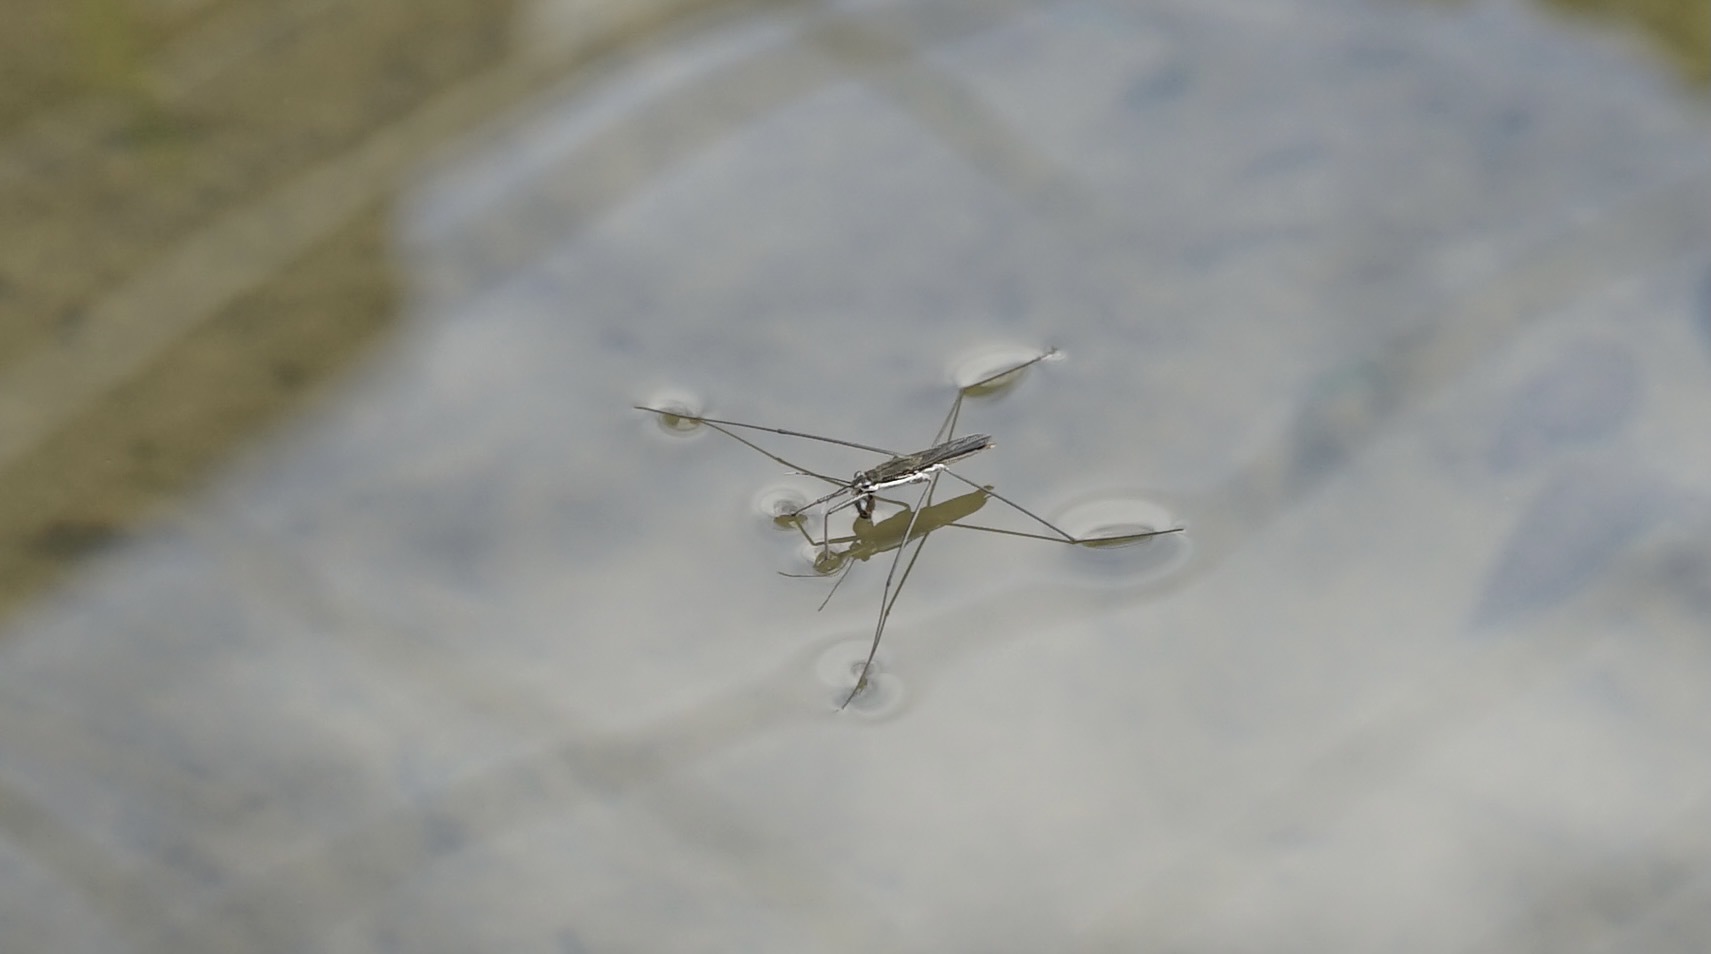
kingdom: Animalia
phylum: Arthropoda
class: Insecta
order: Hemiptera
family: Gerridae
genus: Aquarius
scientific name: Aquarius paludum
